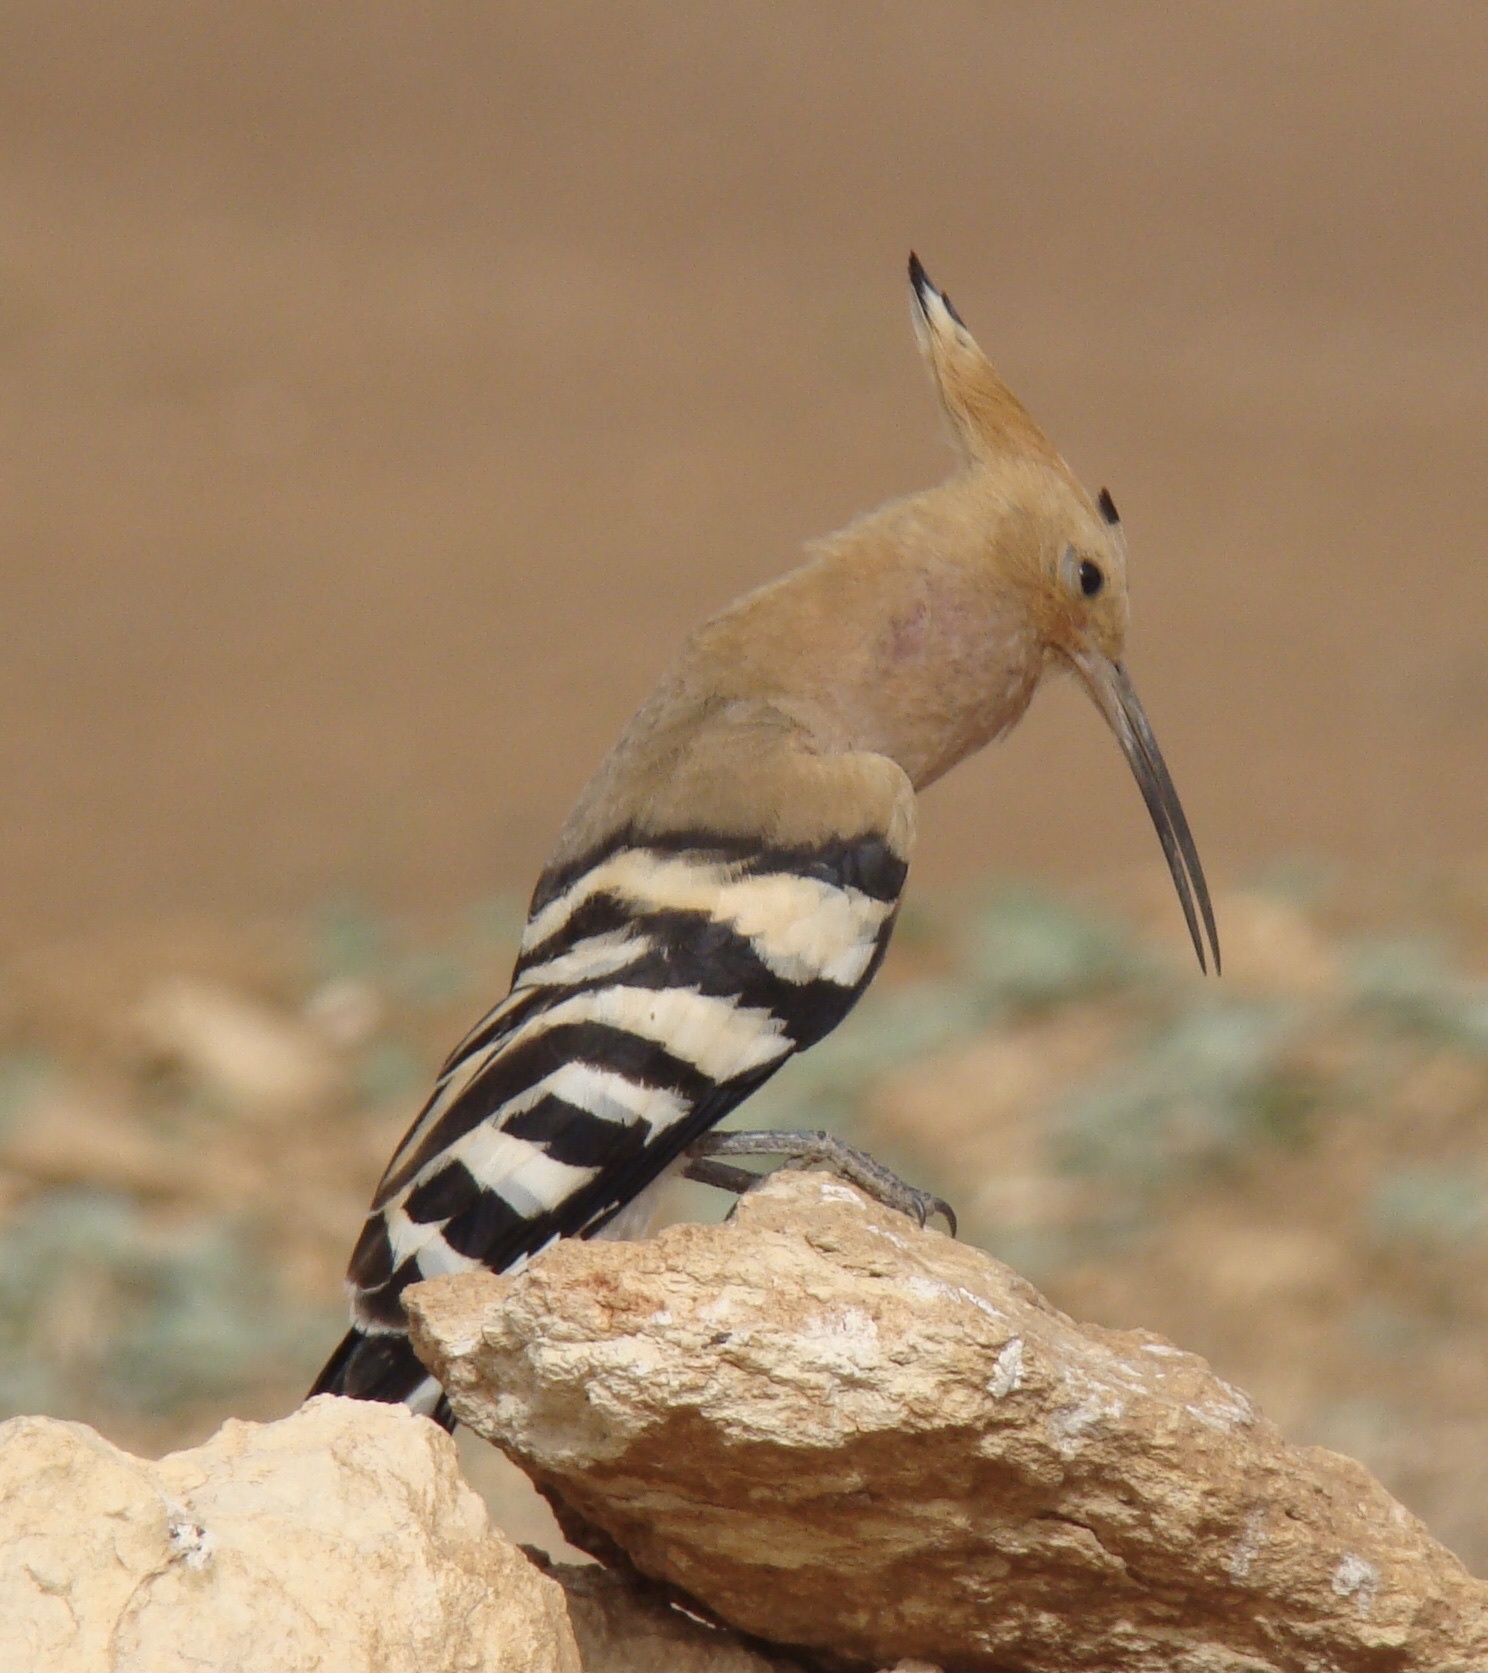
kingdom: Animalia
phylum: Chordata
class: Aves
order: Bucerotiformes
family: Upupidae
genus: Upupa
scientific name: Upupa epops
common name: Eurasian hoopoe
